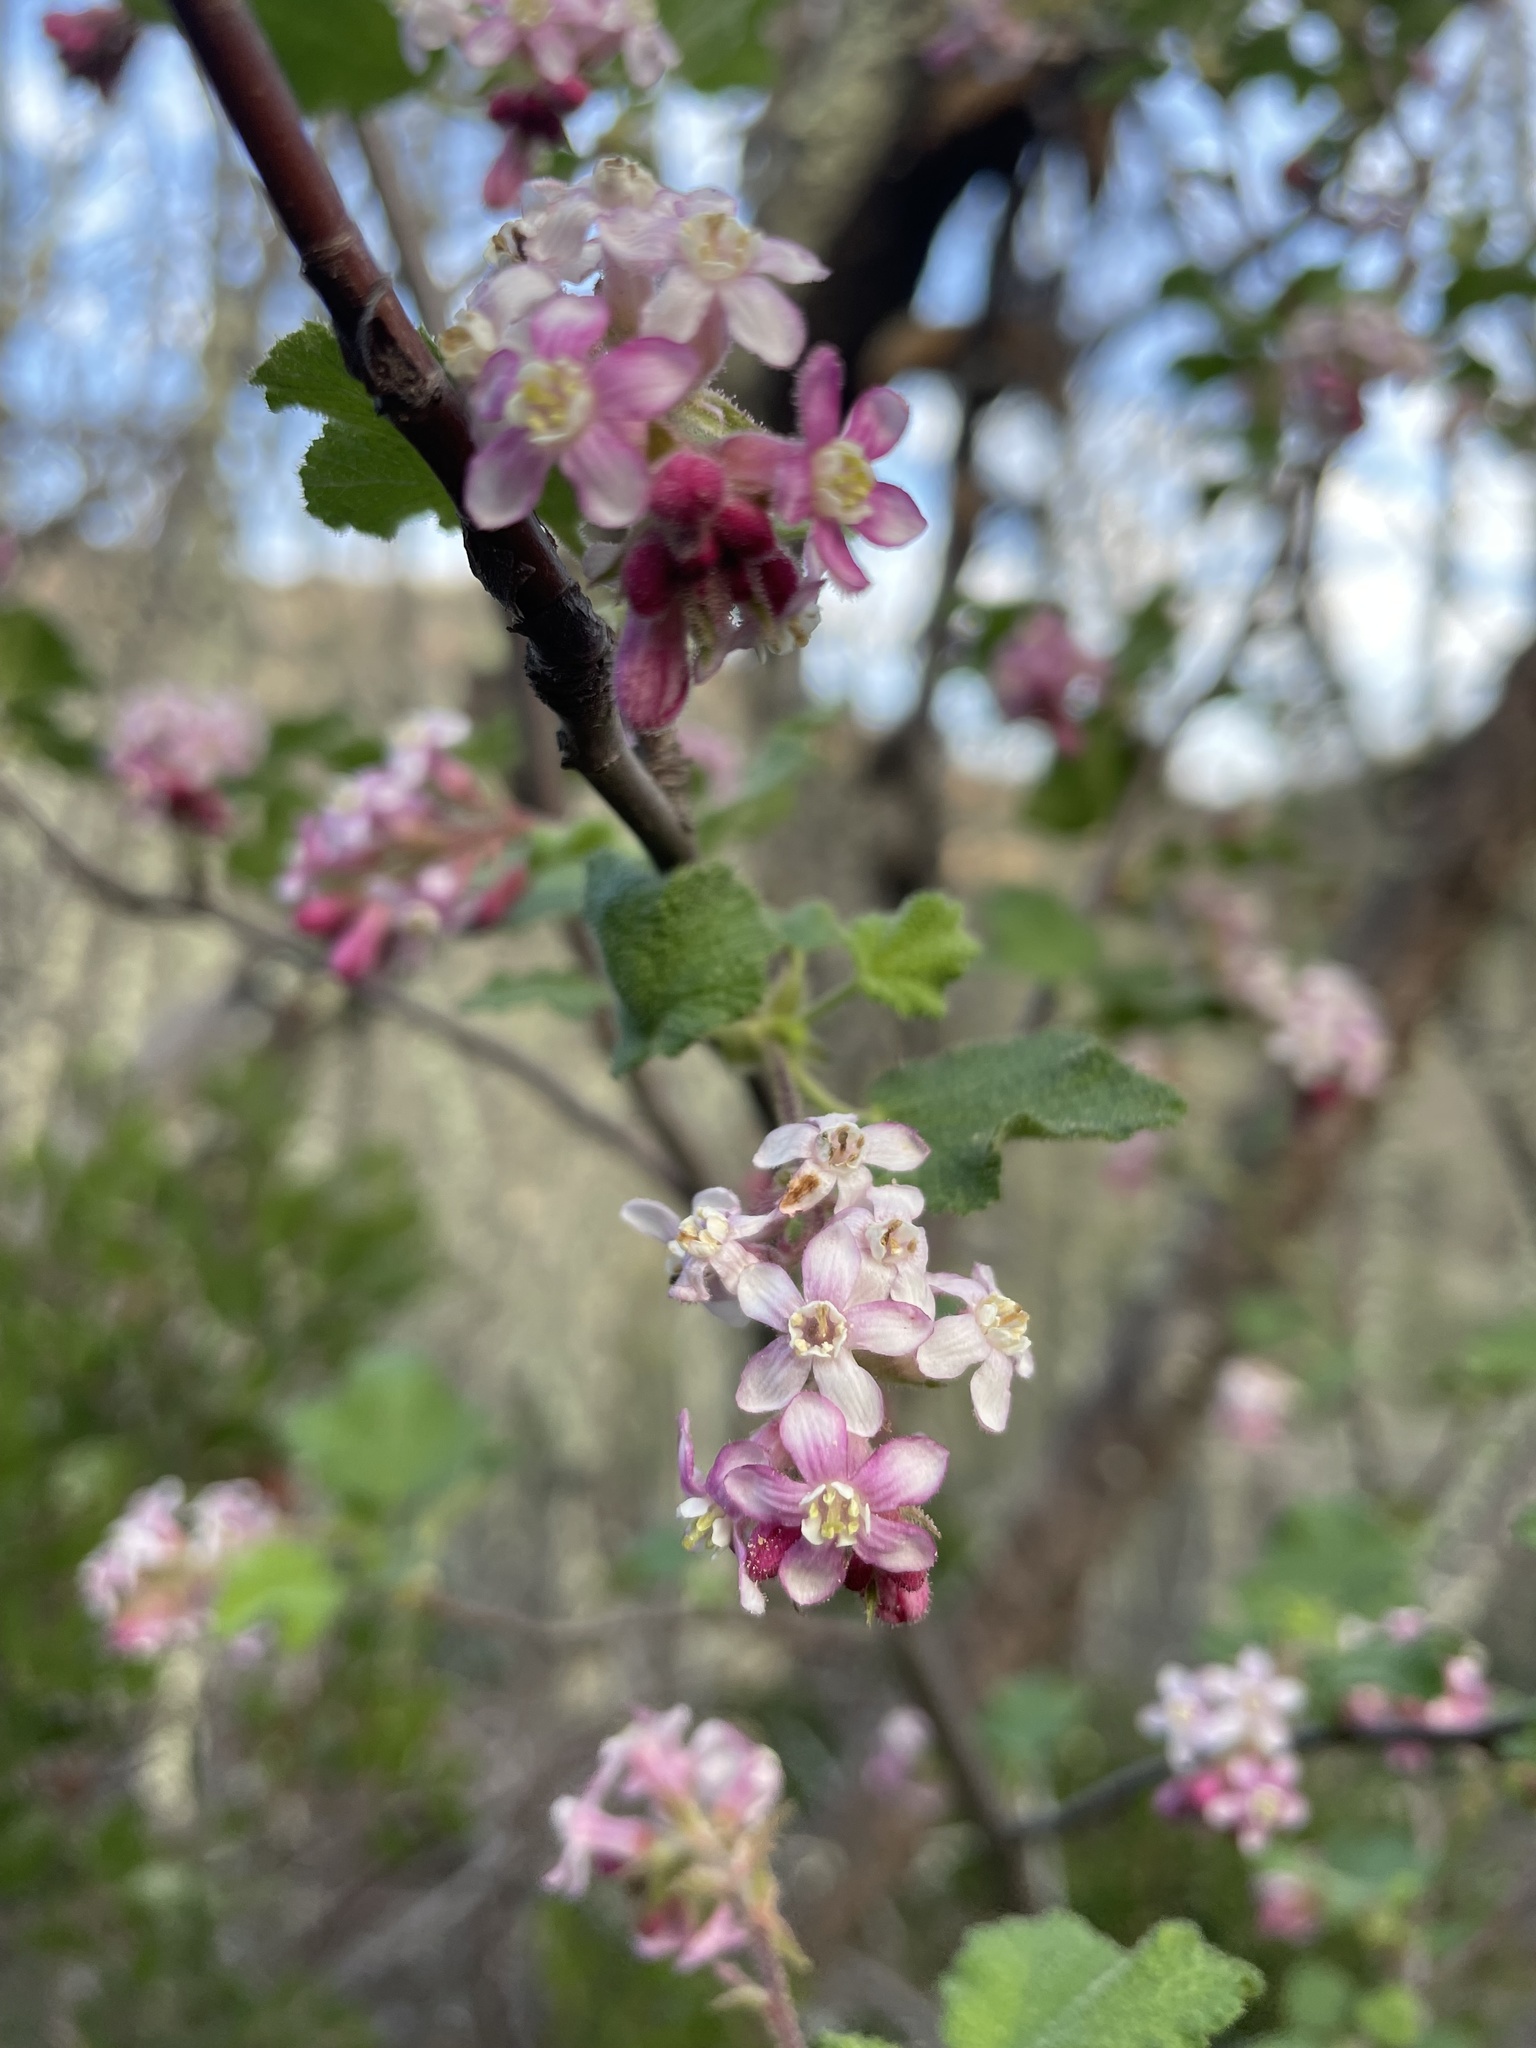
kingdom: Plantae
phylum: Tracheophyta
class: Magnoliopsida
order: Saxifragales
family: Grossulariaceae
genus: Ribes
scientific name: Ribes malvaceum
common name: Chaparral currant
